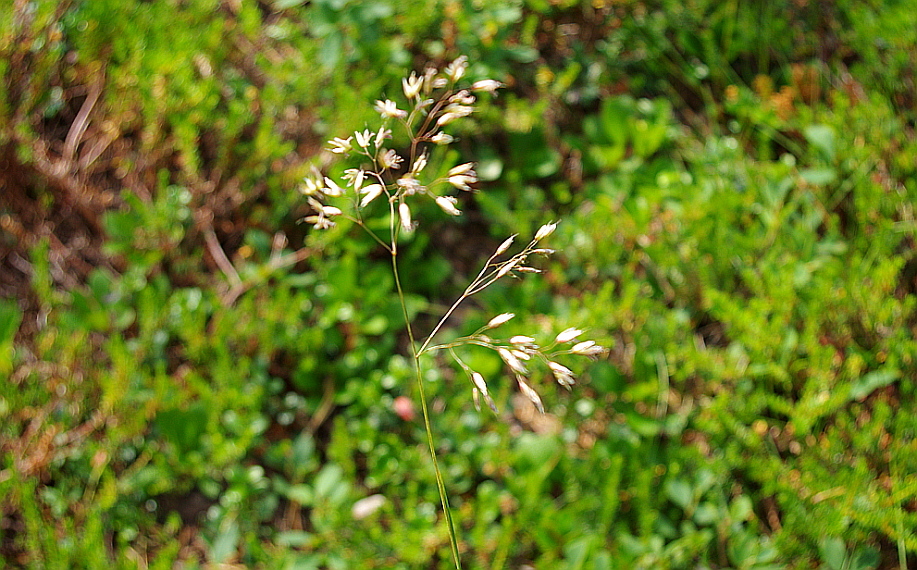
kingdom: Plantae
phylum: Tracheophyta
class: Liliopsida
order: Poales
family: Poaceae
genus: Avenella
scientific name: Avenella flexuosa
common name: Wavy hairgrass
